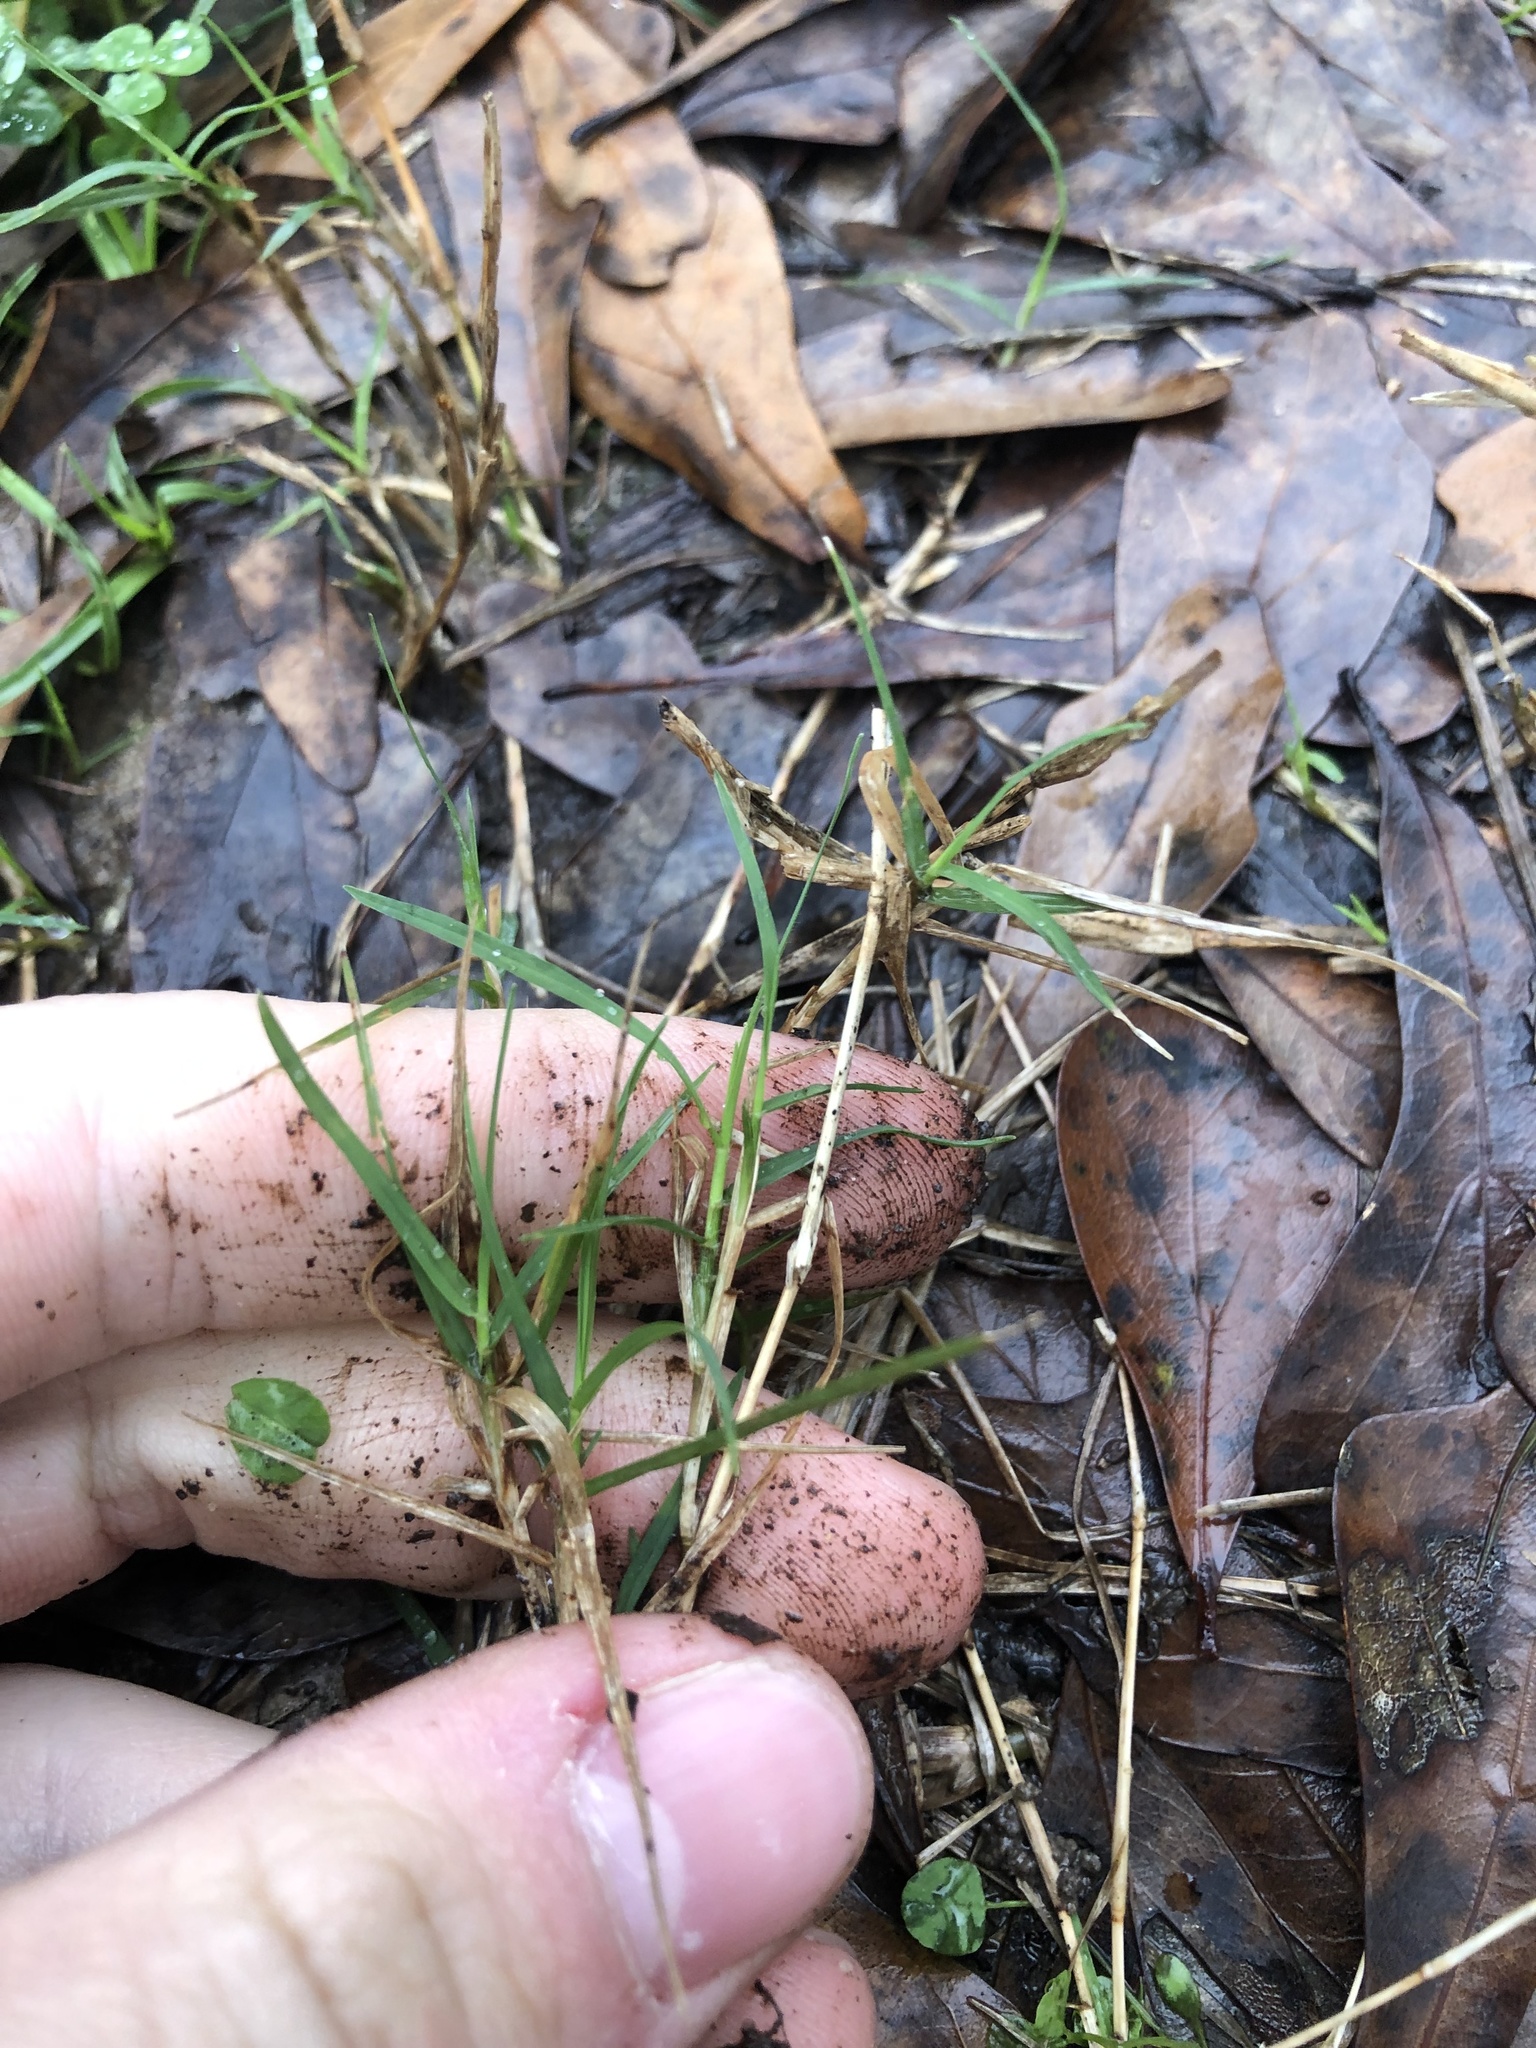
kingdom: Plantae
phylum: Tracheophyta
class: Liliopsida
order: Poales
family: Poaceae
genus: Cynodon
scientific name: Cynodon dactylon
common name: Bermuda grass
